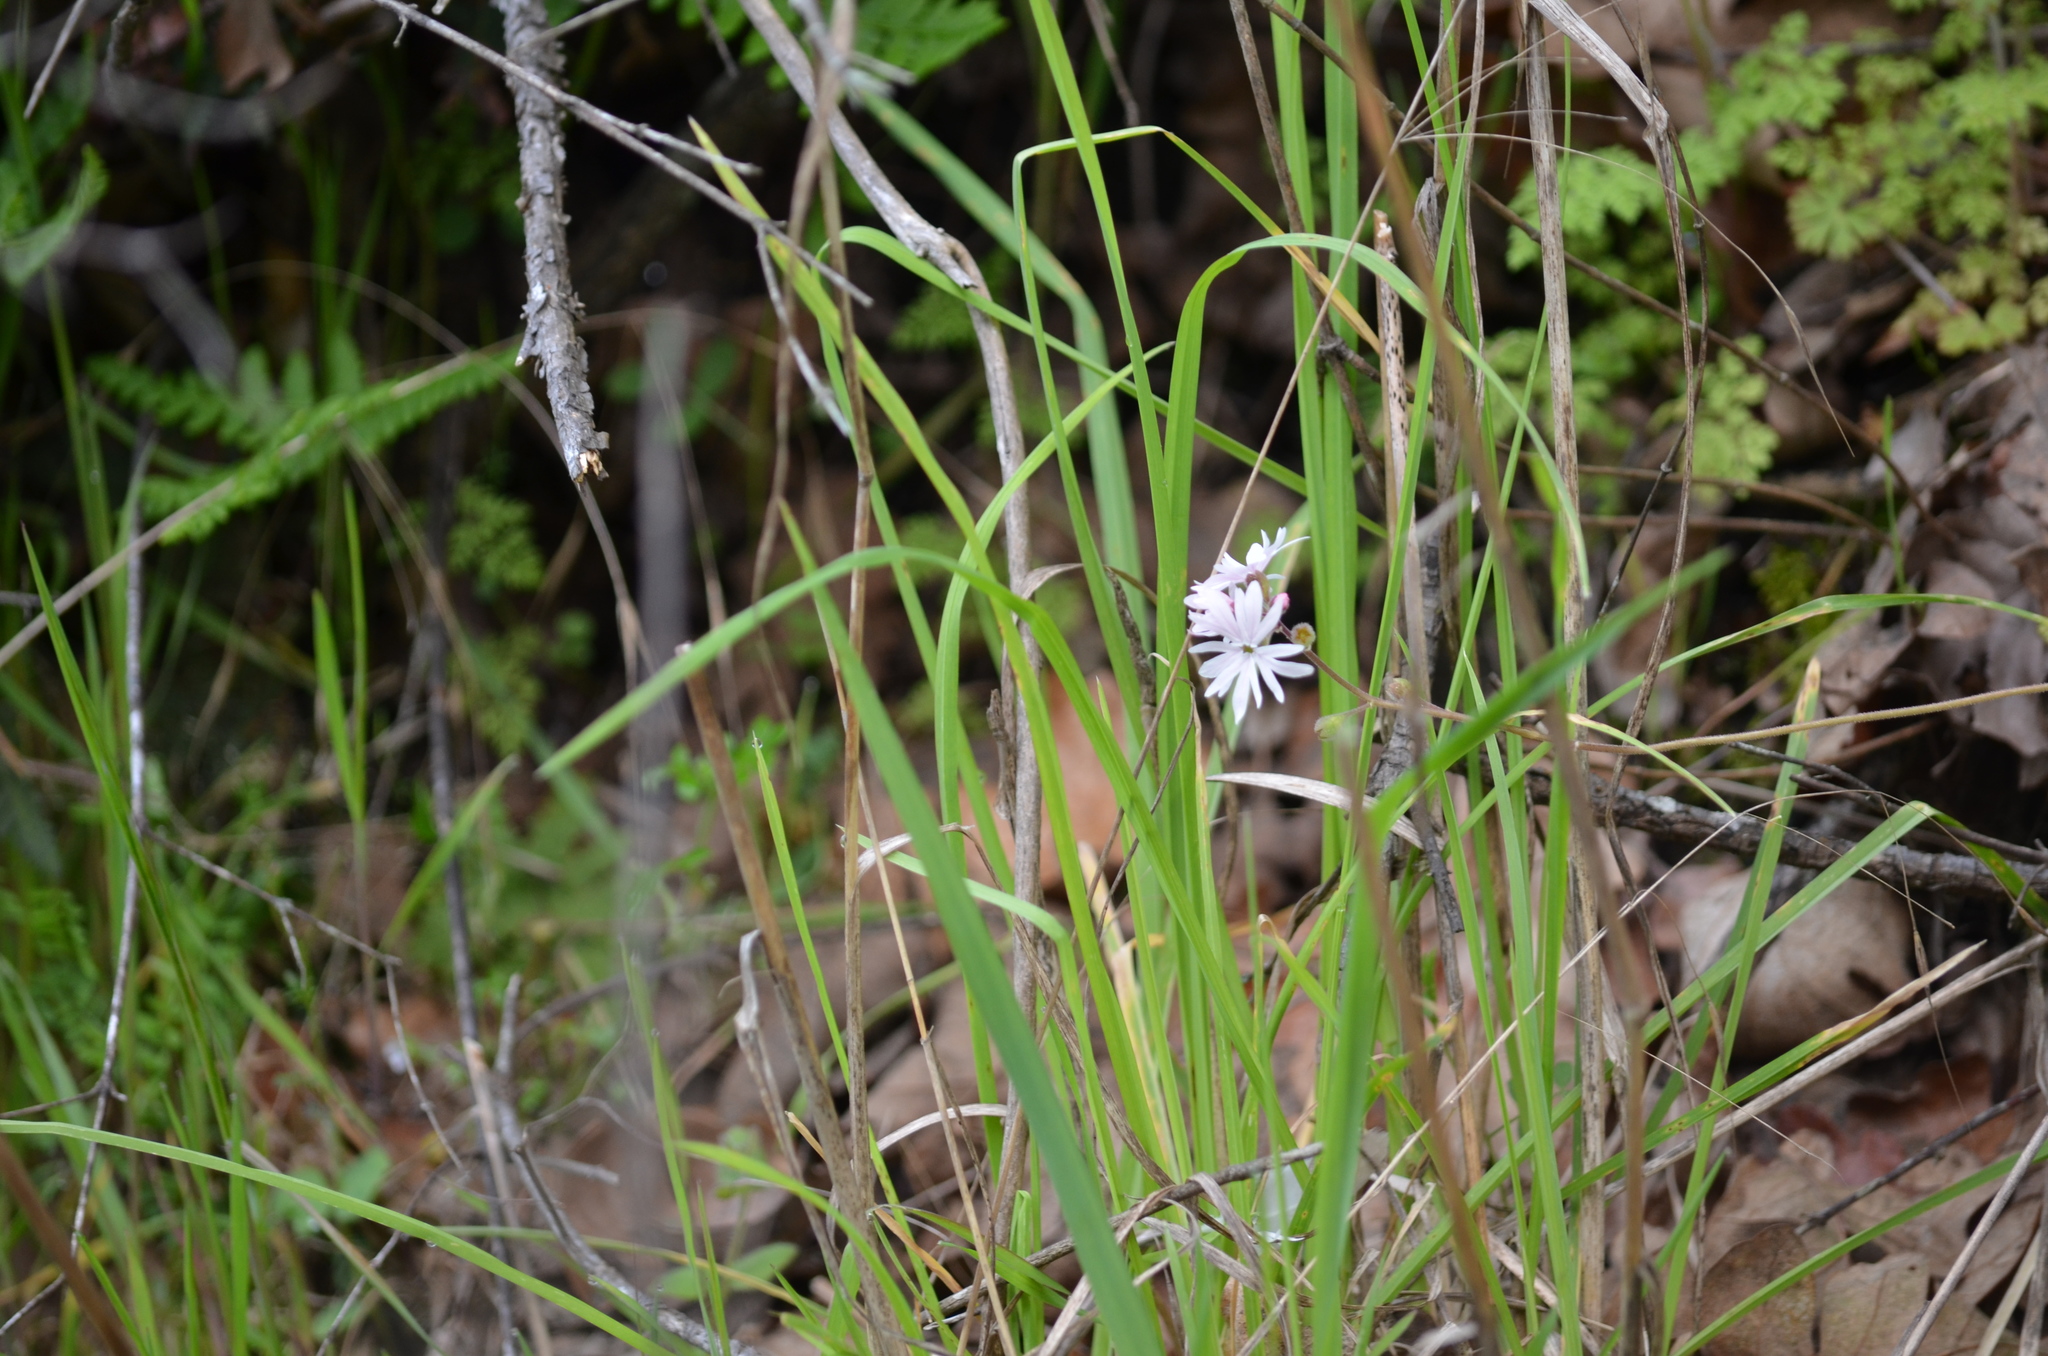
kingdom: Plantae
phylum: Tracheophyta
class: Magnoliopsida
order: Saxifragales
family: Saxifragaceae
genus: Lithophragma
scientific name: Lithophragma parviflorum
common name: Small-flowered fringe-cup
